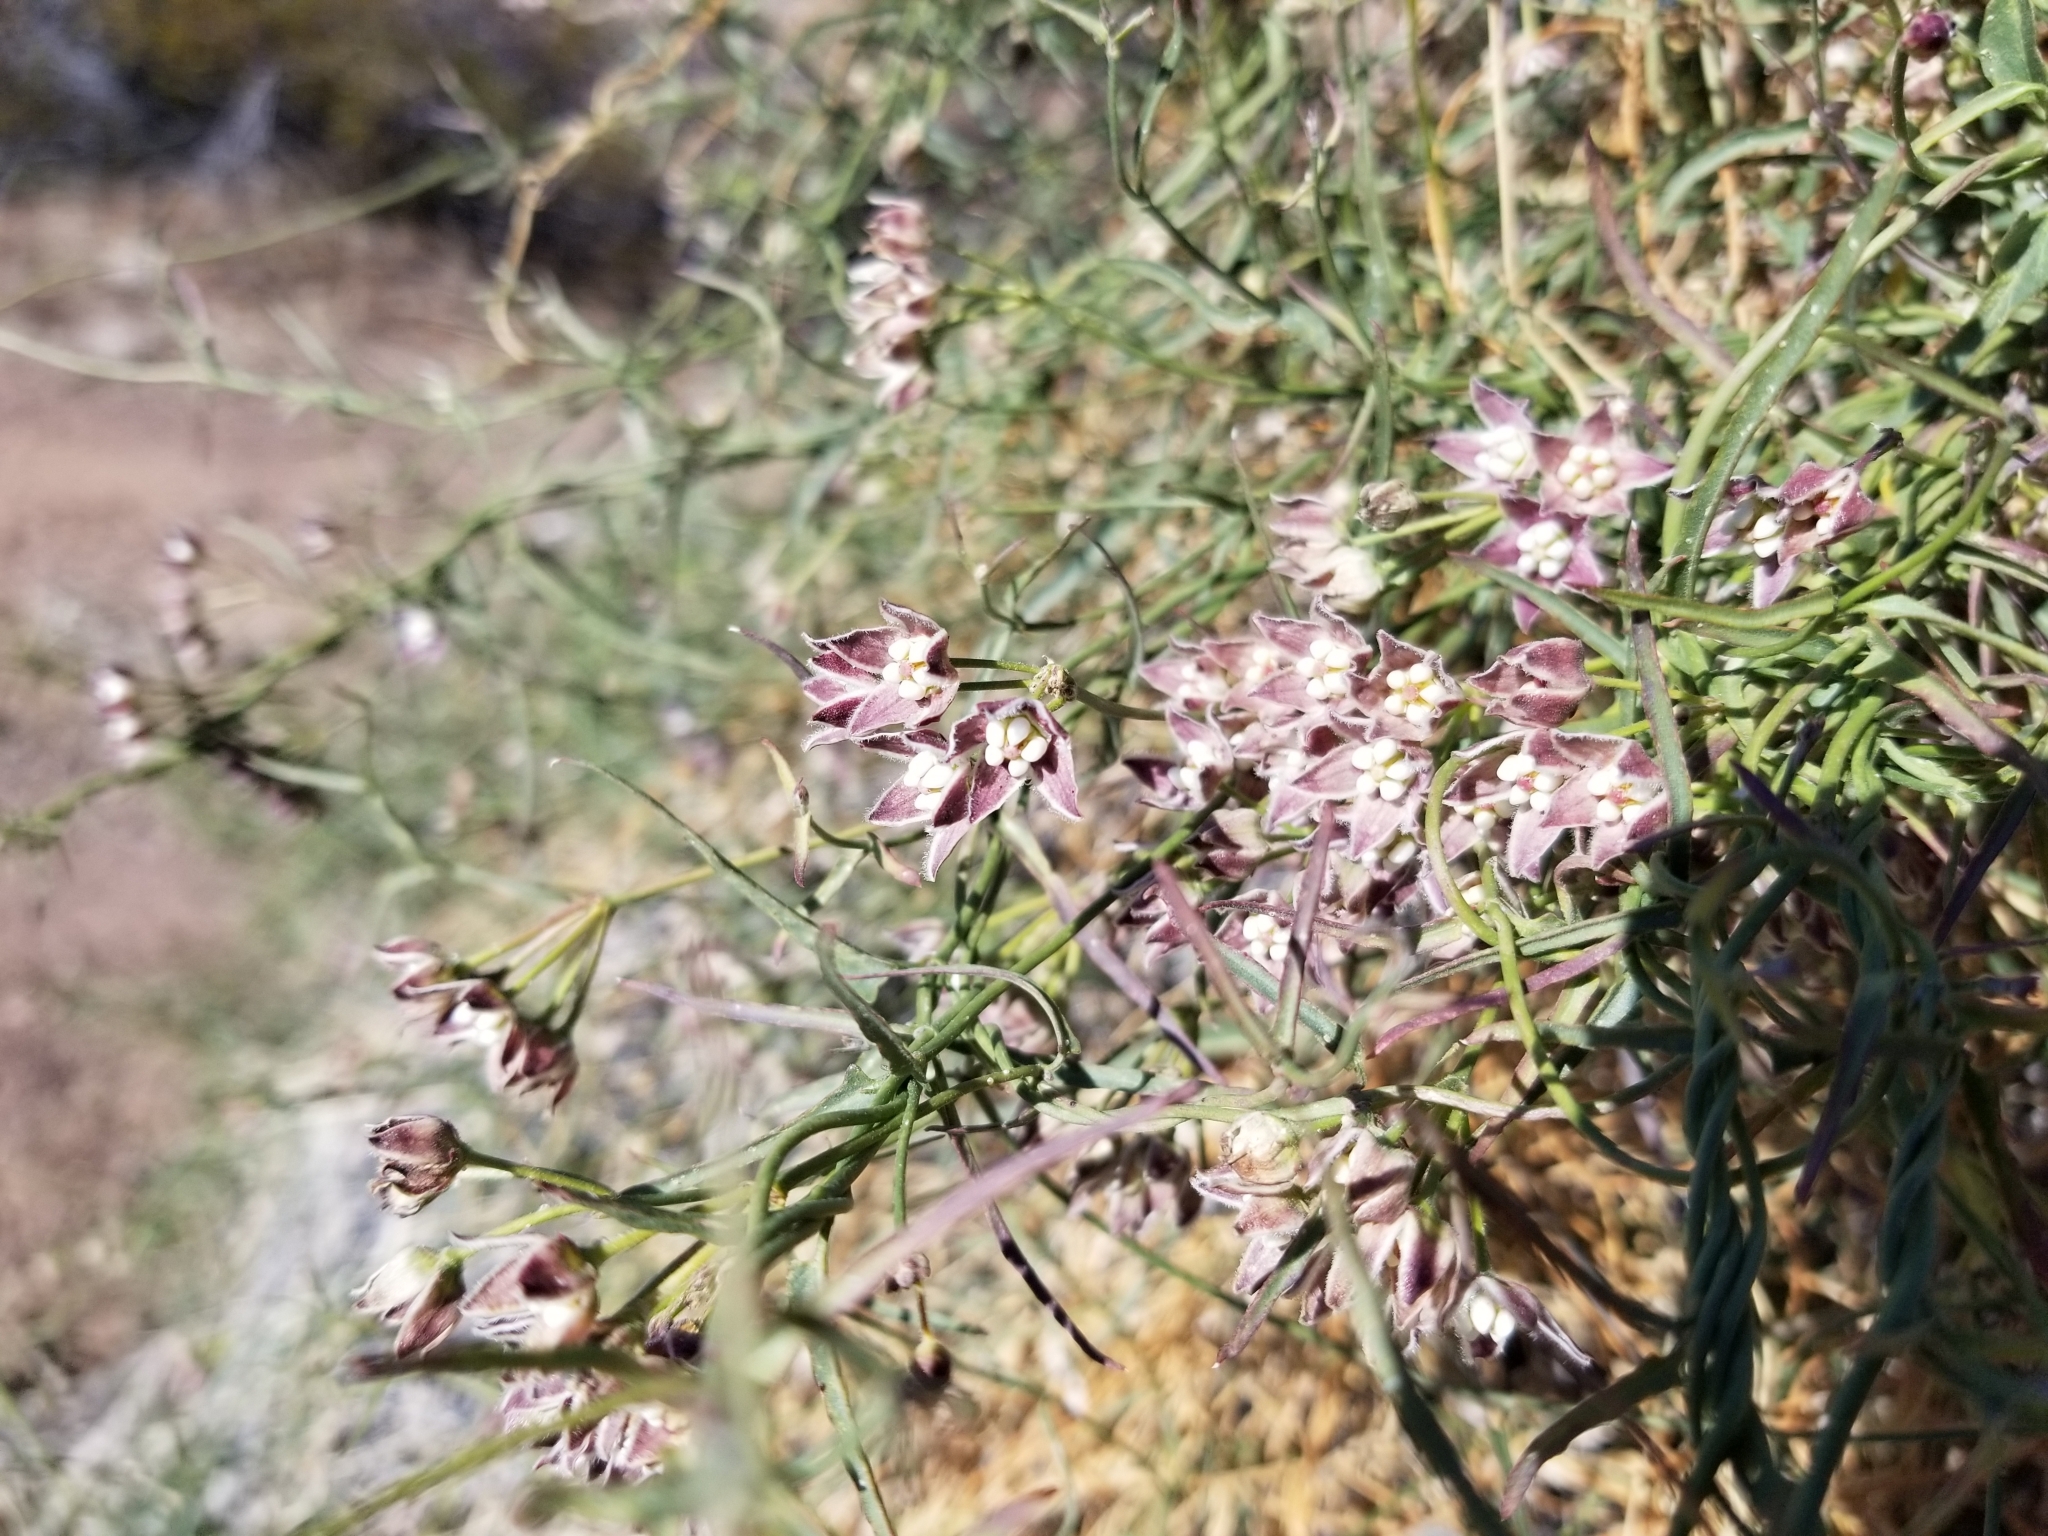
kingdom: Plantae
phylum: Tracheophyta
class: Magnoliopsida
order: Gentianales
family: Apocynaceae
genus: Funastrum
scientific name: Funastrum heterophyllum
